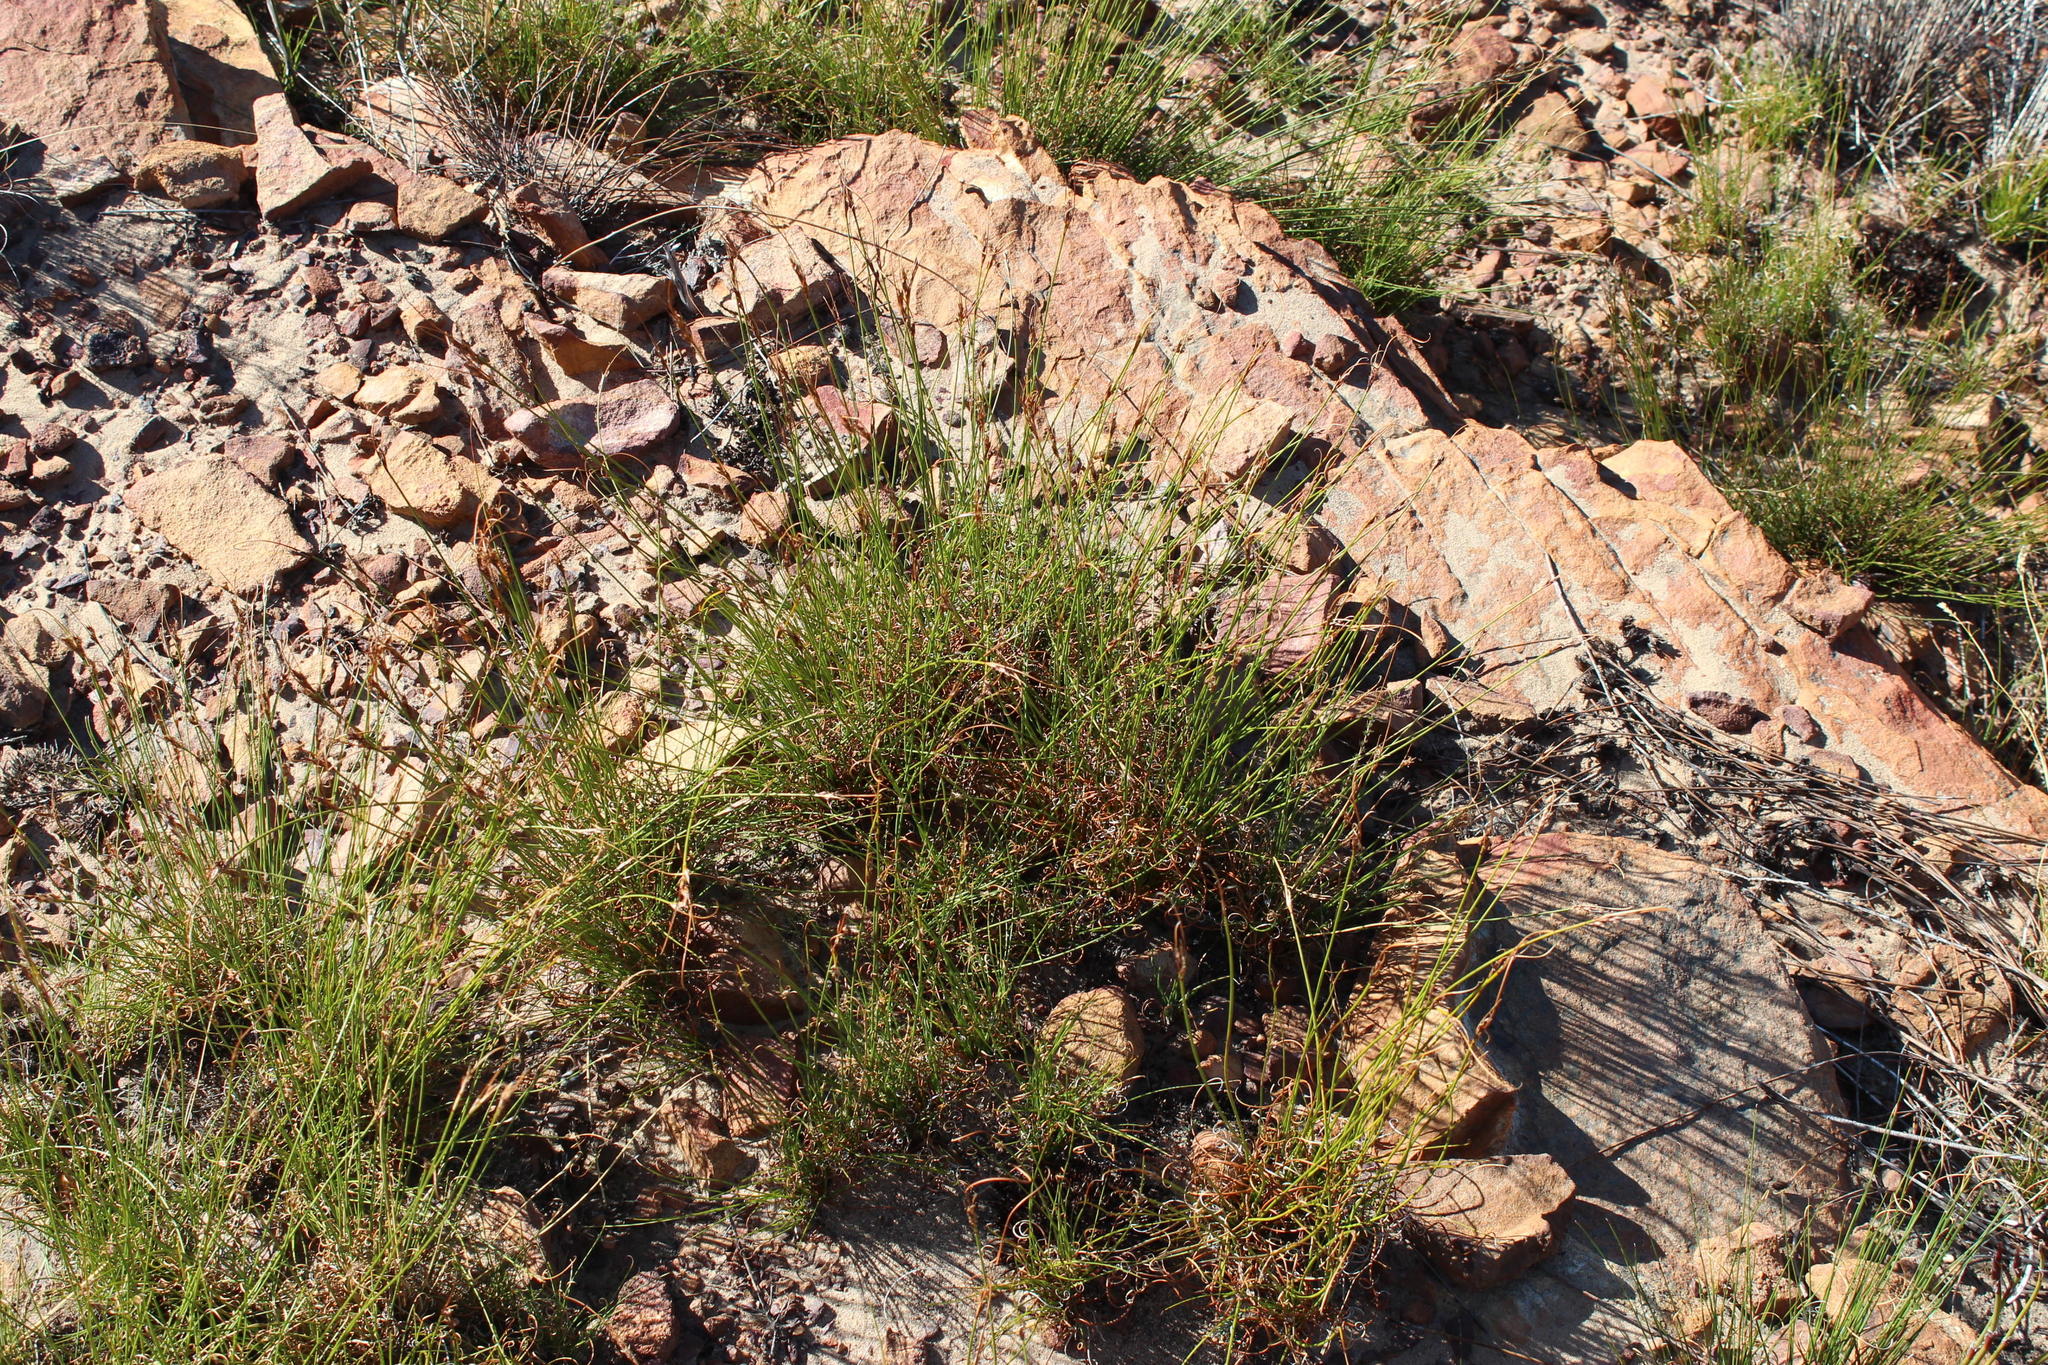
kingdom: Plantae
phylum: Tracheophyta
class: Liliopsida
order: Poales
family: Cyperaceae
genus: Schoenus
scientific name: Schoenus pseudoloreus
